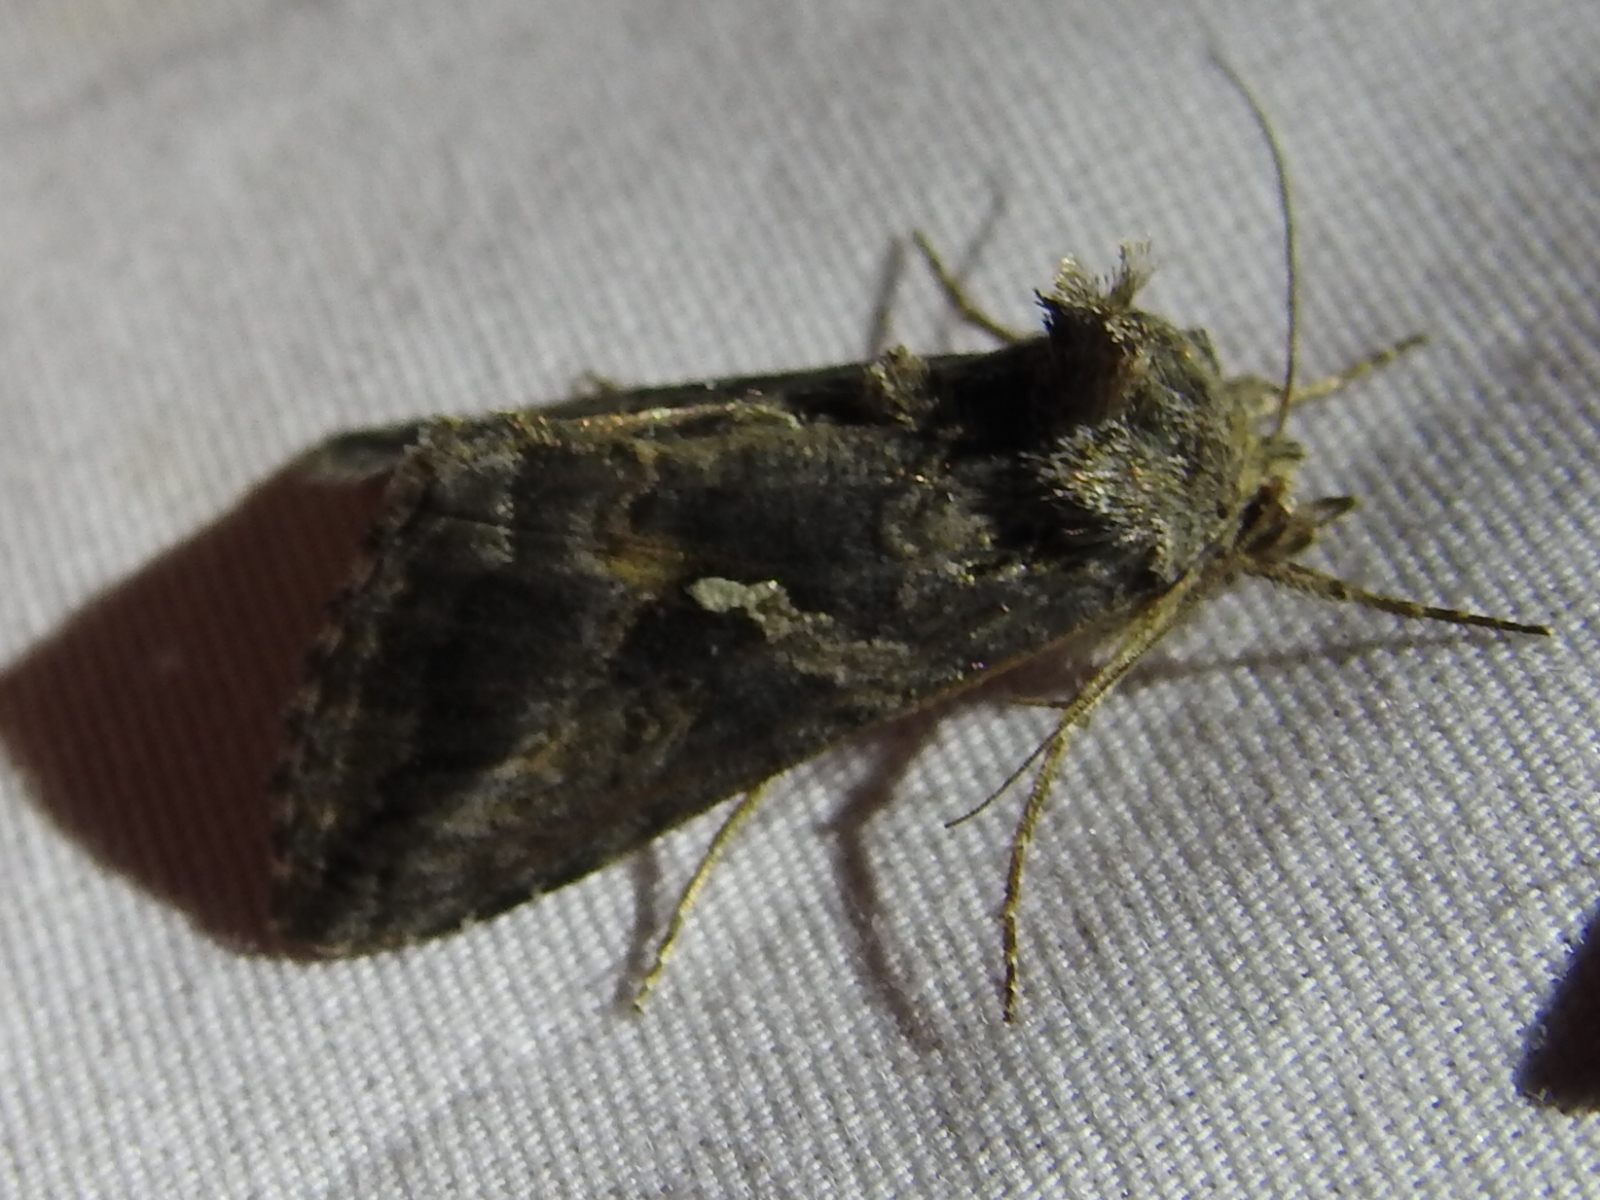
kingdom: Animalia
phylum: Arthropoda
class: Insecta
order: Lepidoptera
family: Noctuidae
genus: Rachiplusia
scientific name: Rachiplusia ou
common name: Gray looper moth
